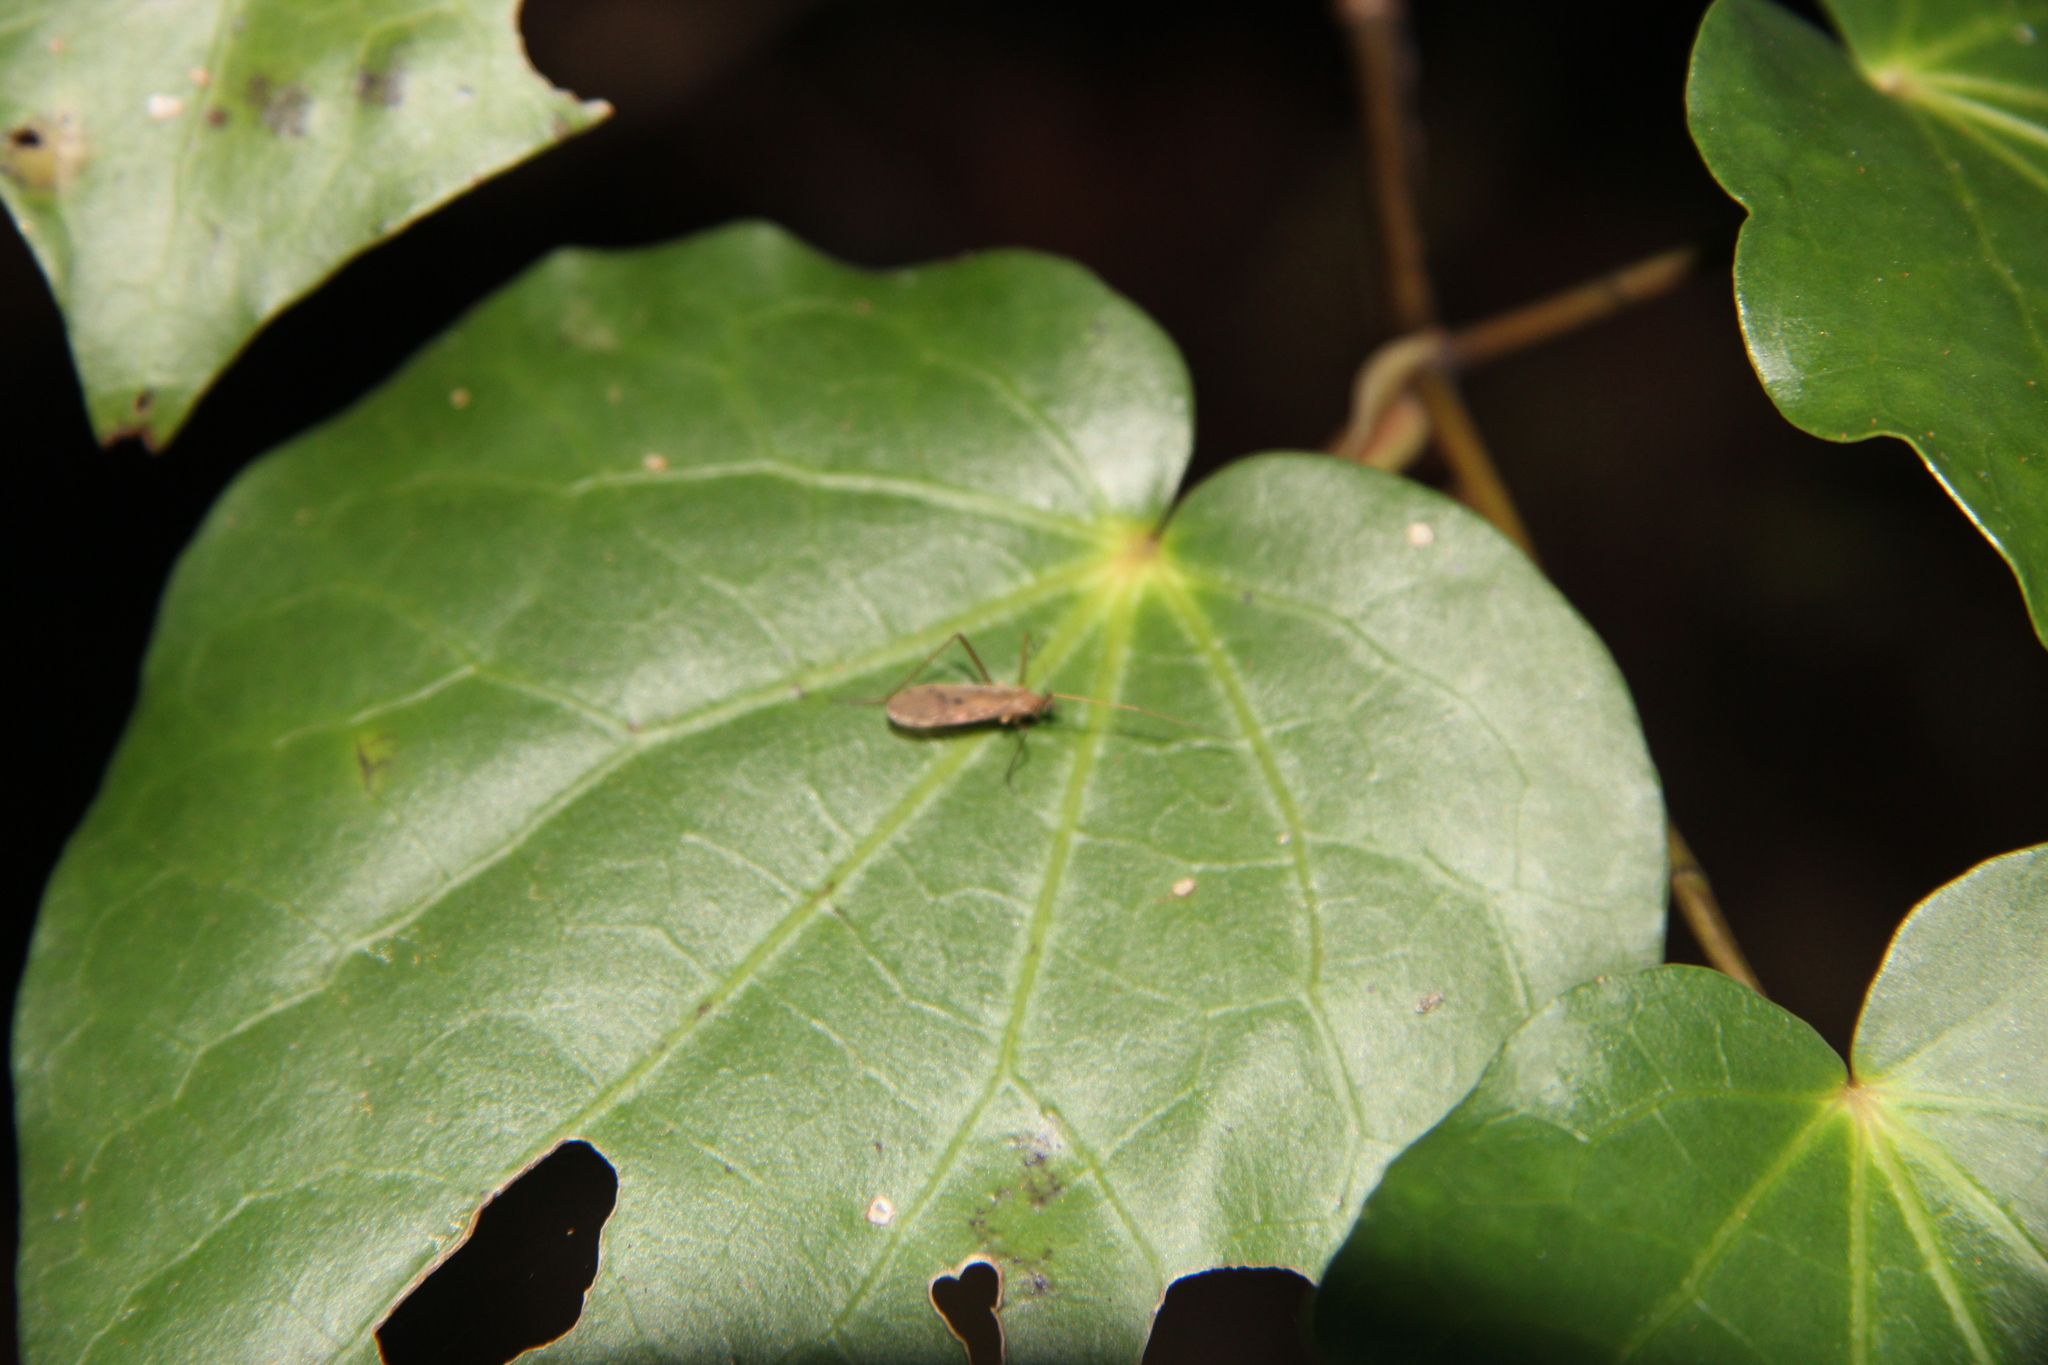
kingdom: Animalia
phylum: Arthropoda
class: Insecta
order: Diptera
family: Limoniidae
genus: Amphineurus
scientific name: Amphineurus insulsus
